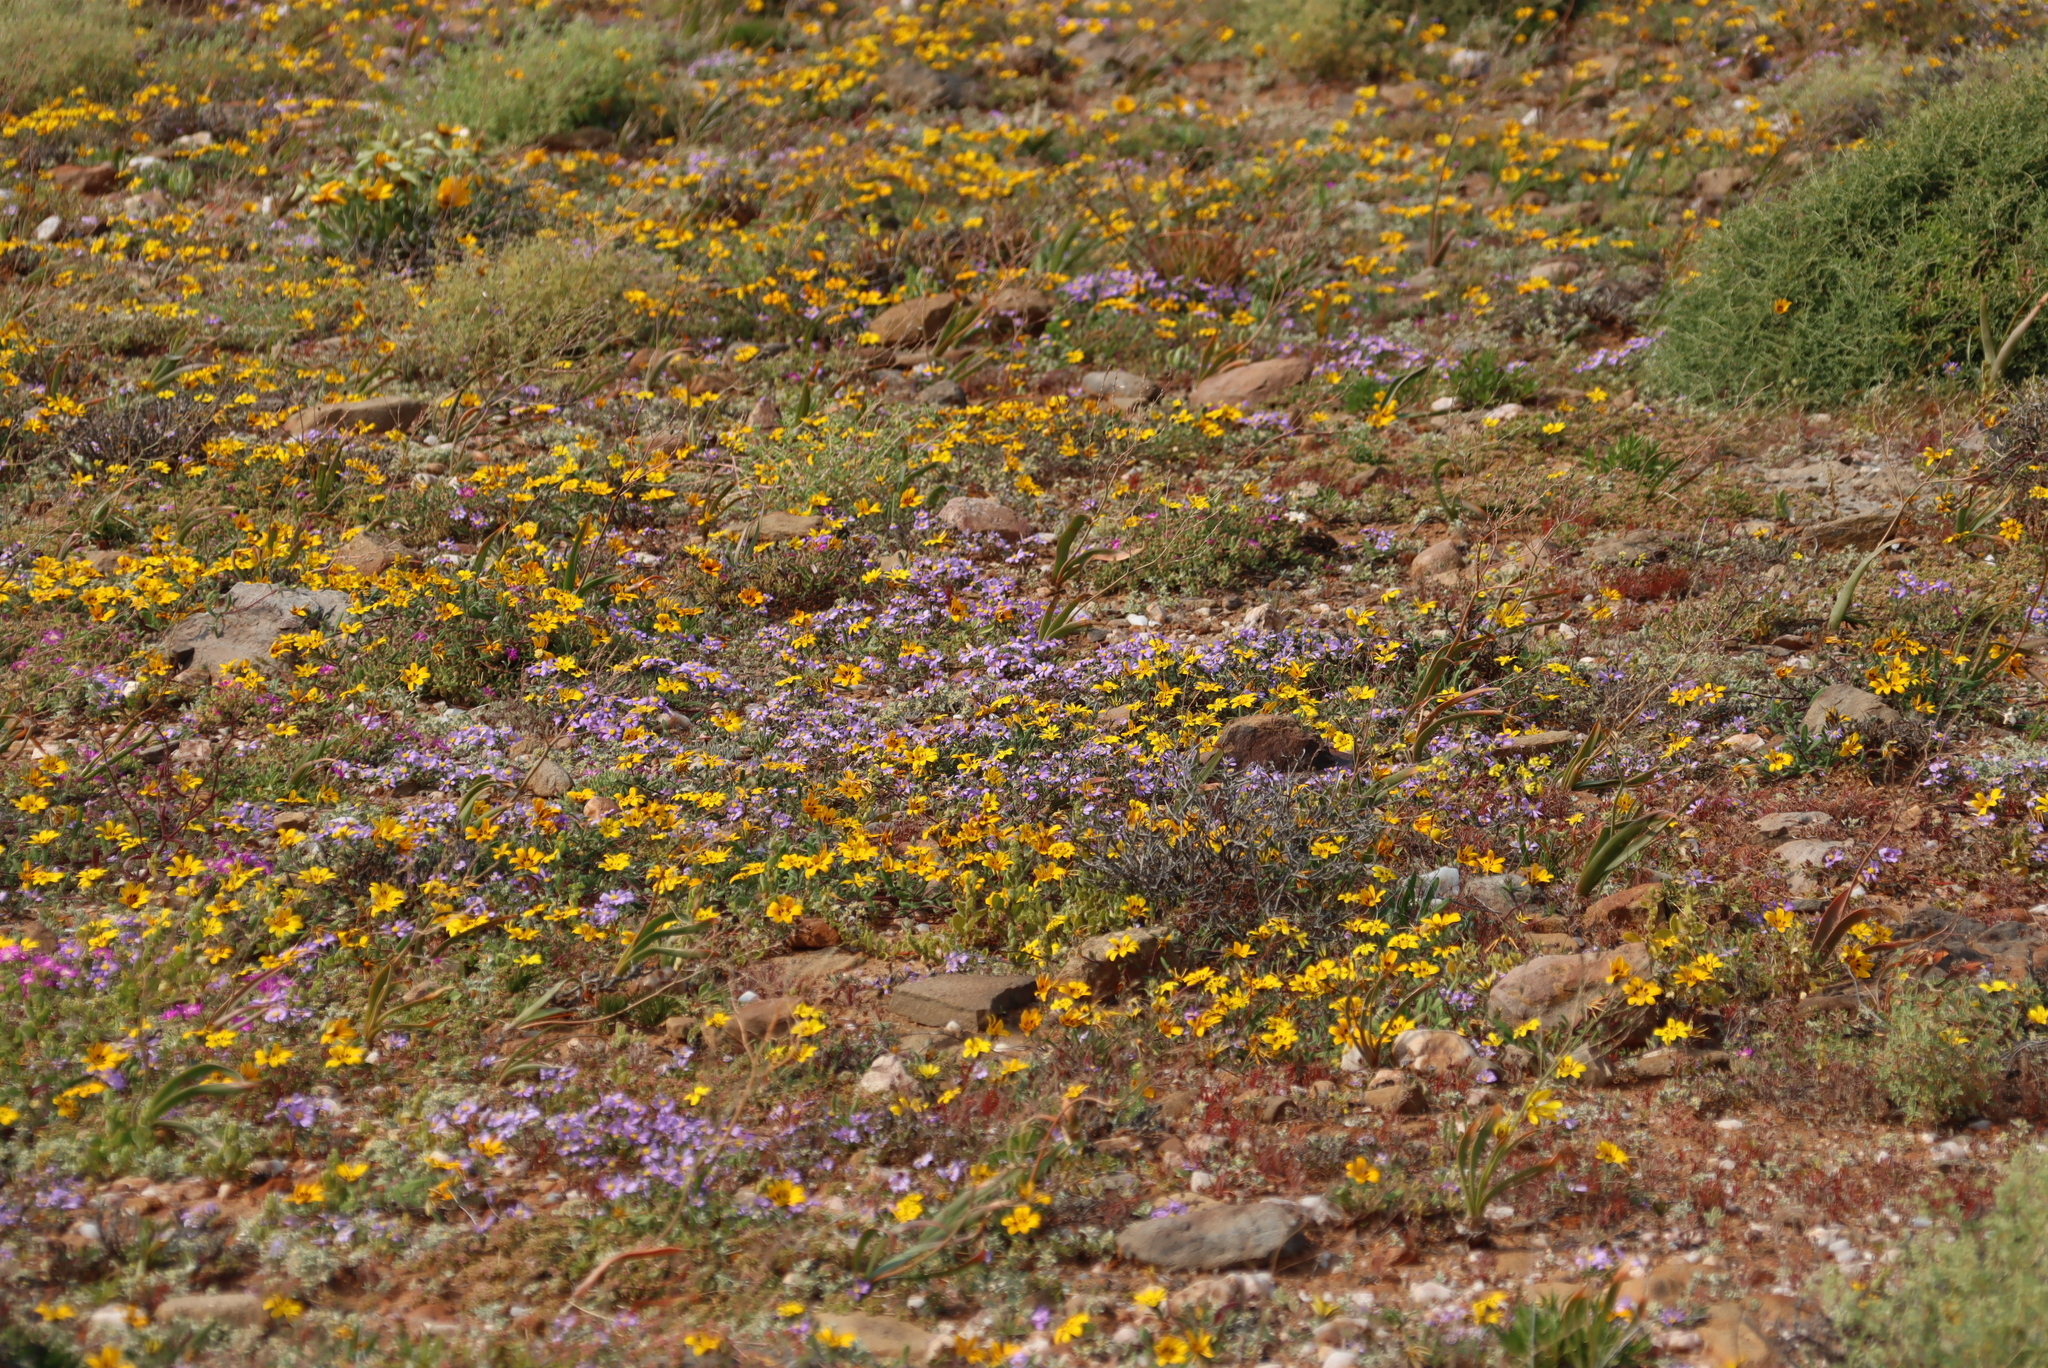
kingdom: Plantae
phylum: Tracheophyta
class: Magnoliopsida
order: Asterales
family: Asteraceae
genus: Amellus
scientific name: Amellus nanus
